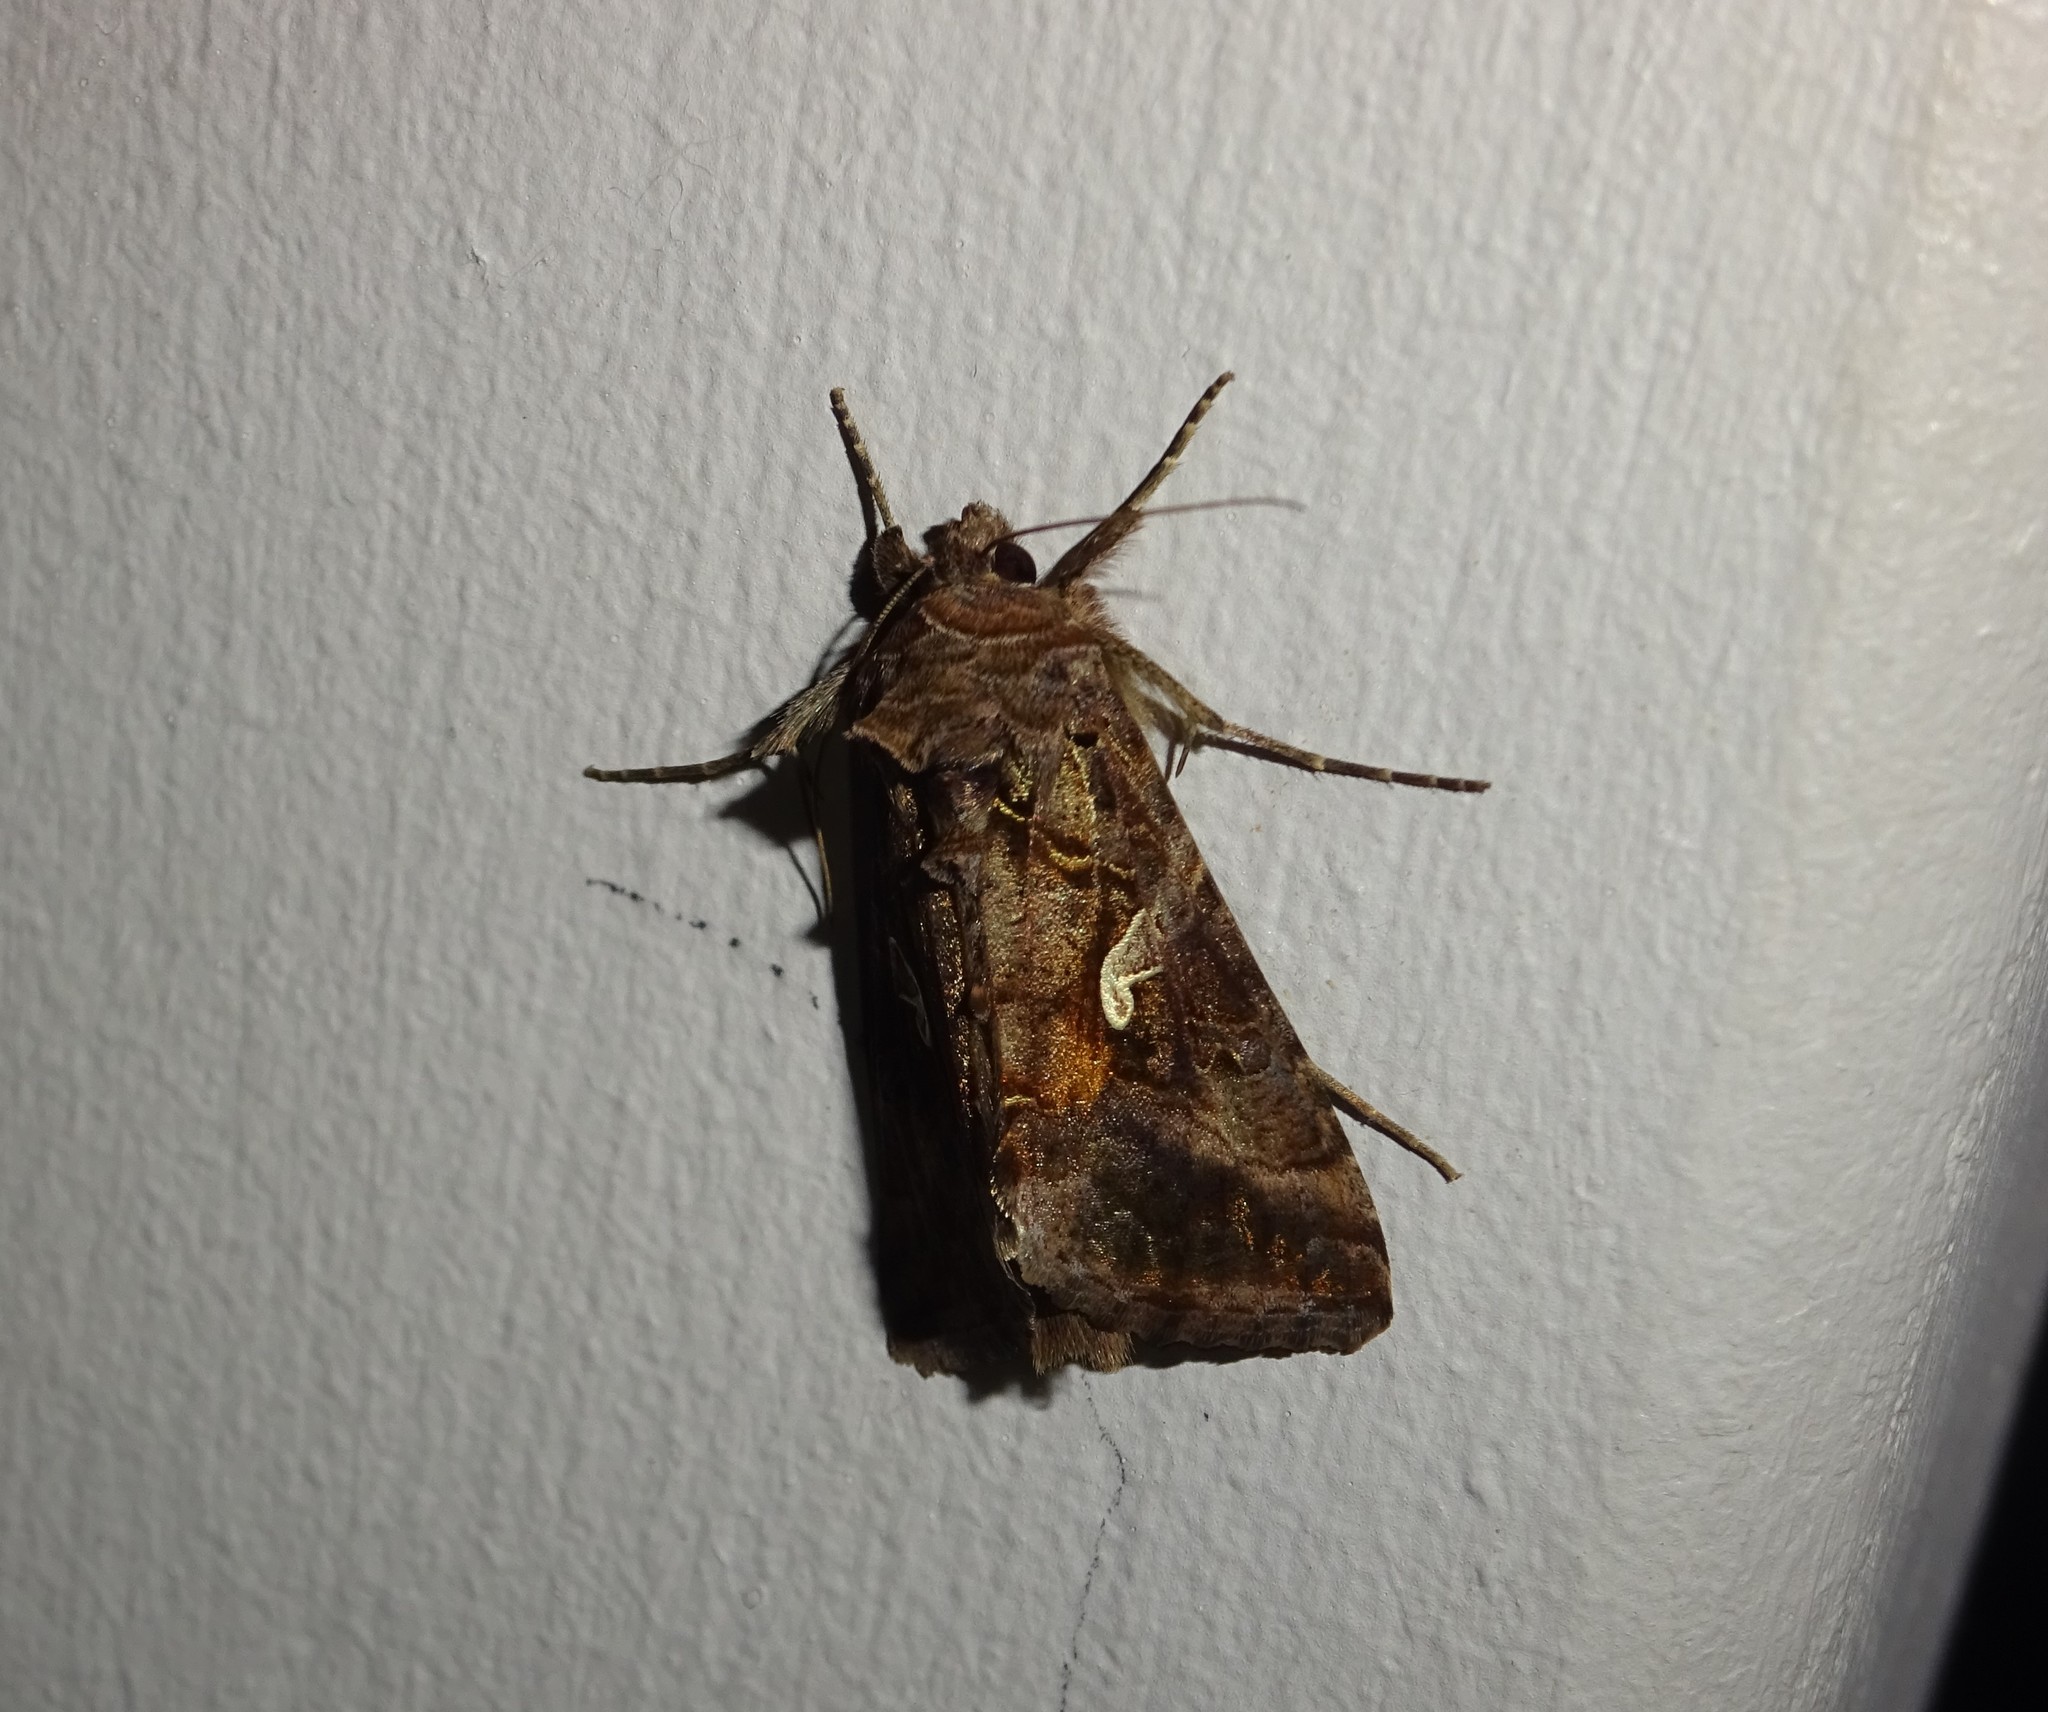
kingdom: Animalia
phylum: Arthropoda
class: Insecta
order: Lepidoptera
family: Noctuidae
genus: Autographa
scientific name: Autographa gamma
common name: Silver y
